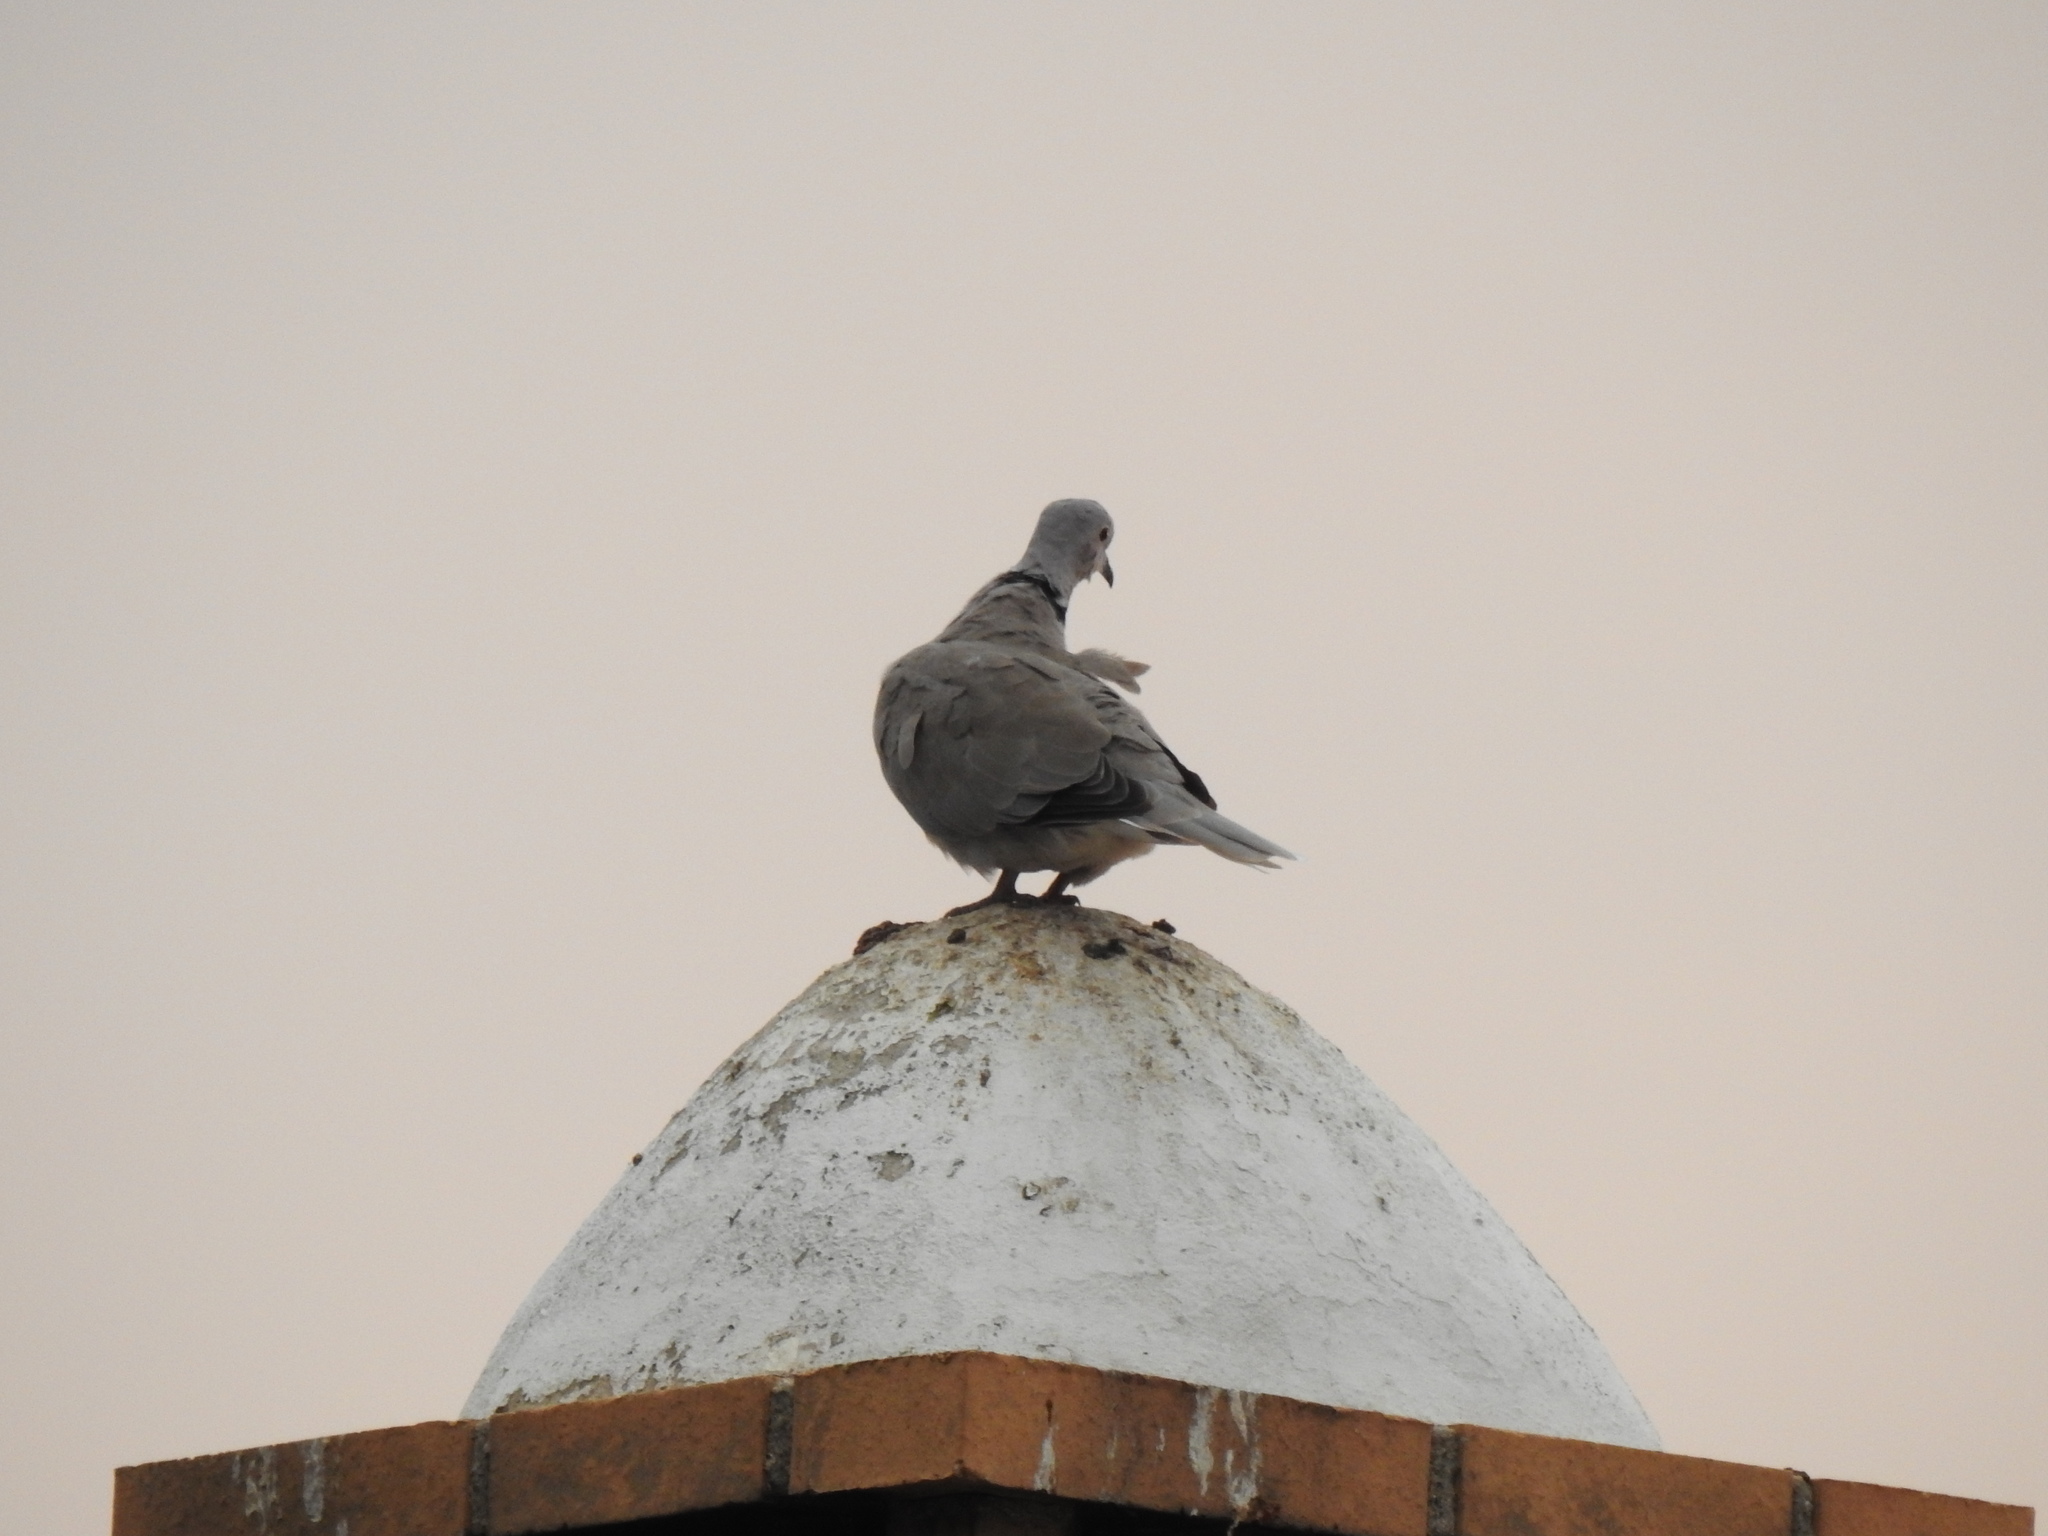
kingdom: Animalia
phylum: Chordata
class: Aves
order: Columbiformes
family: Columbidae
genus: Streptopelia
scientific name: Streptopelia decaocto
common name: Eurasian collared dove
